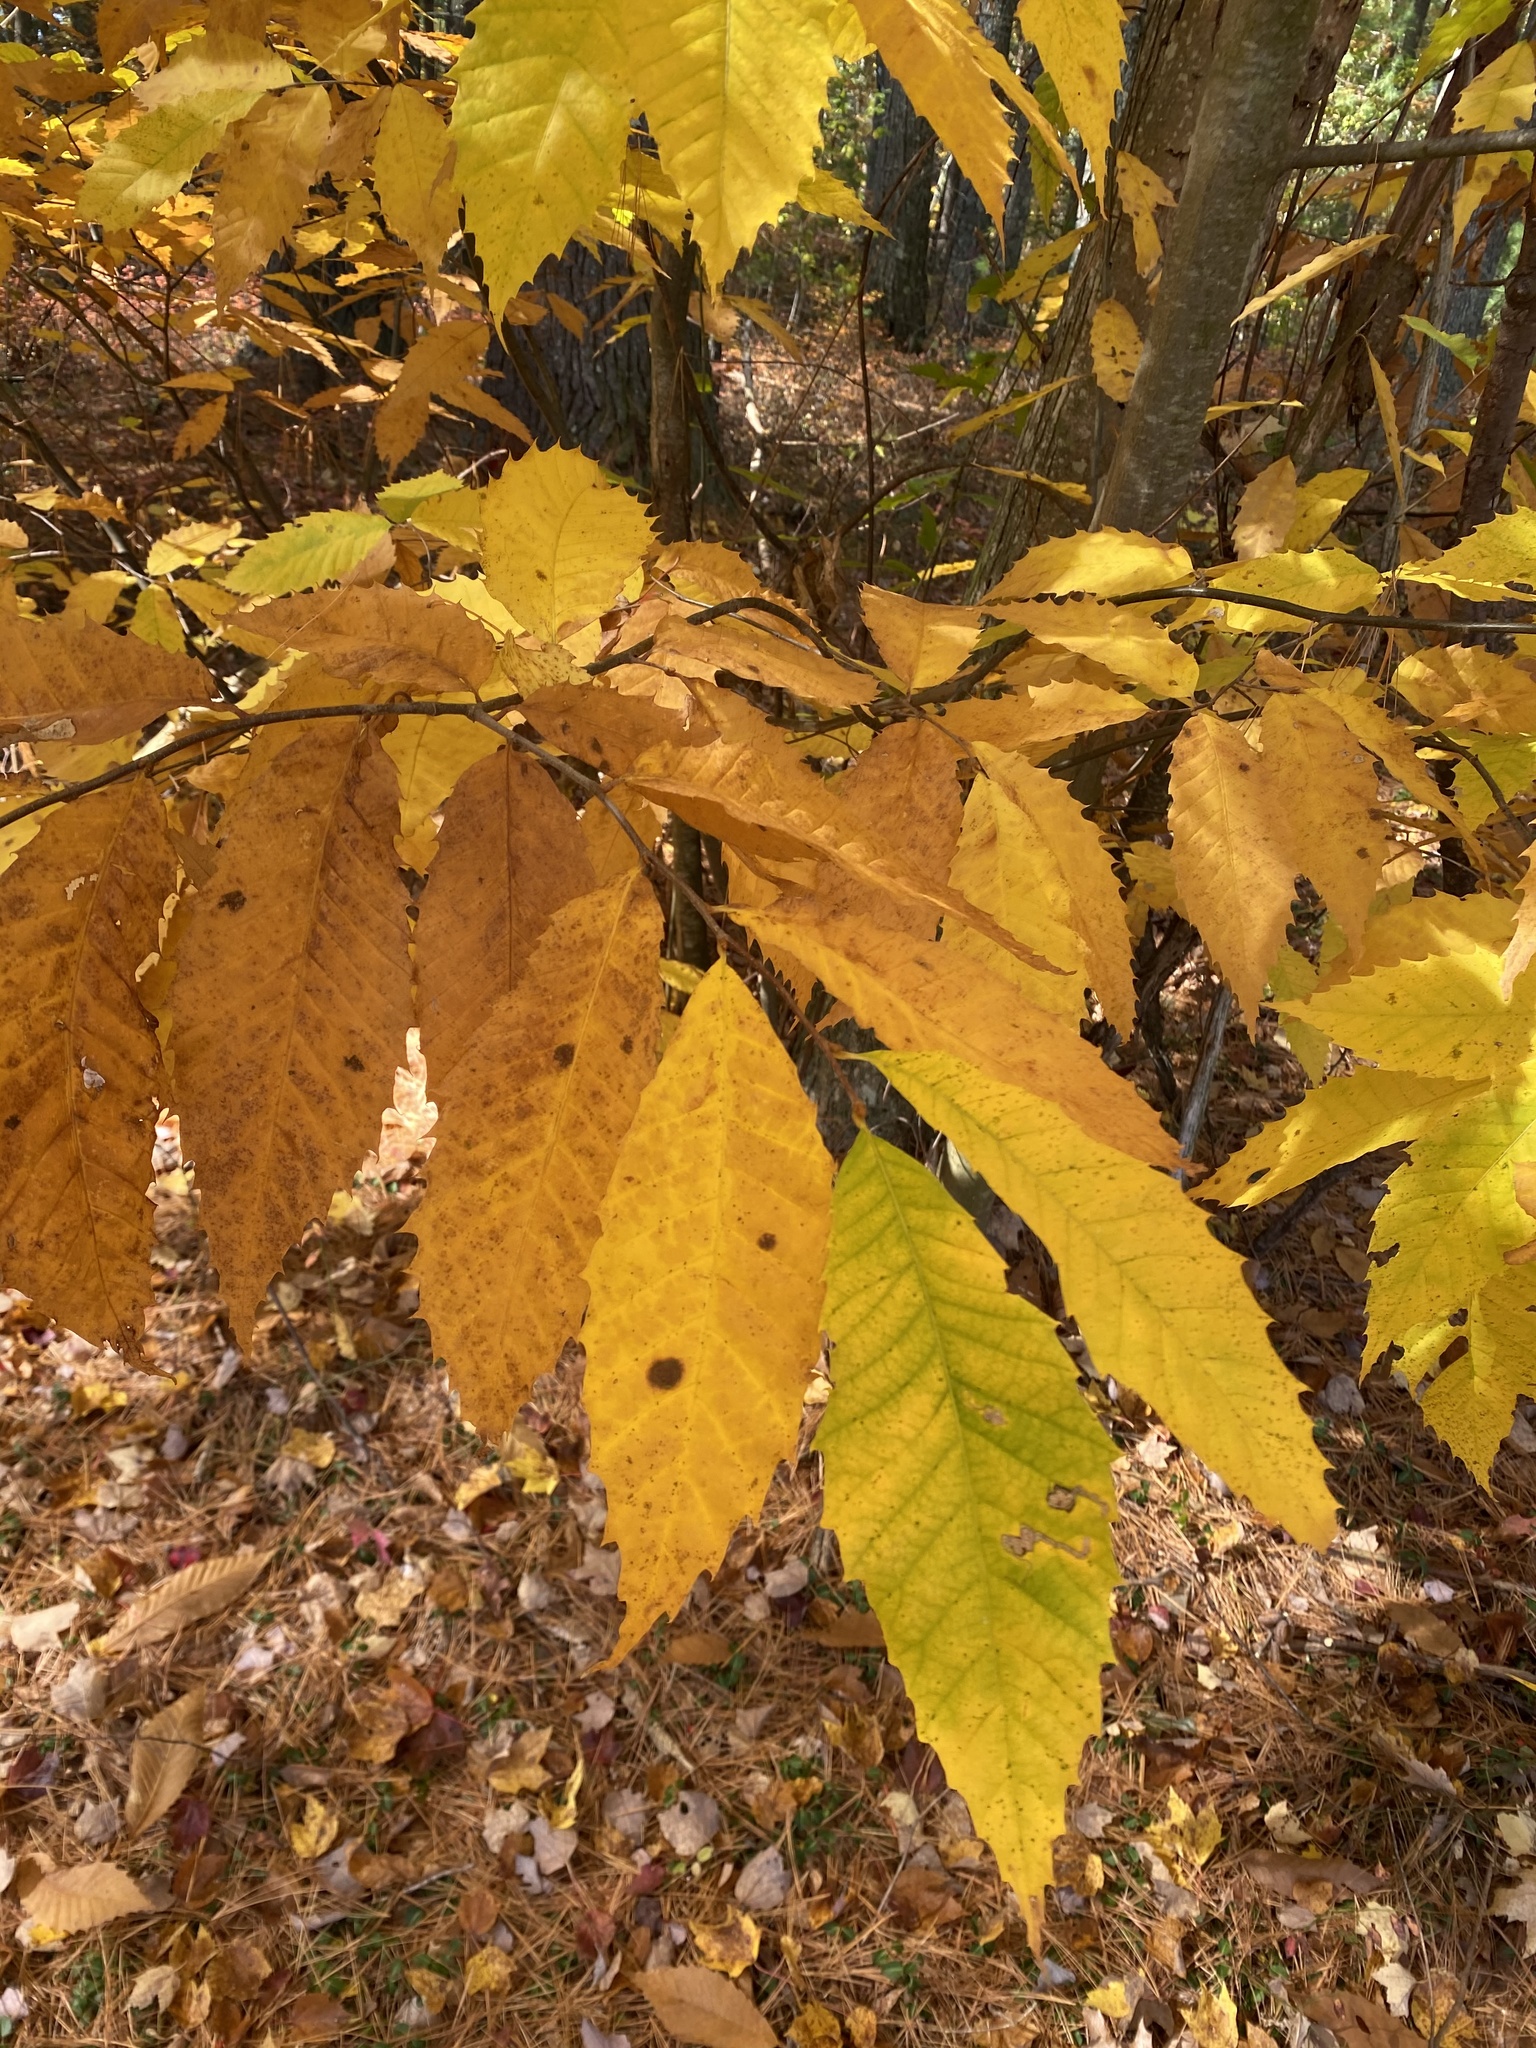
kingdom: Plantae
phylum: Tracheophyta
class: Magnoliopsida
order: Fagales
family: Fagaceae
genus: Castanea
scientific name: Castanea dentata
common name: American chestnut
